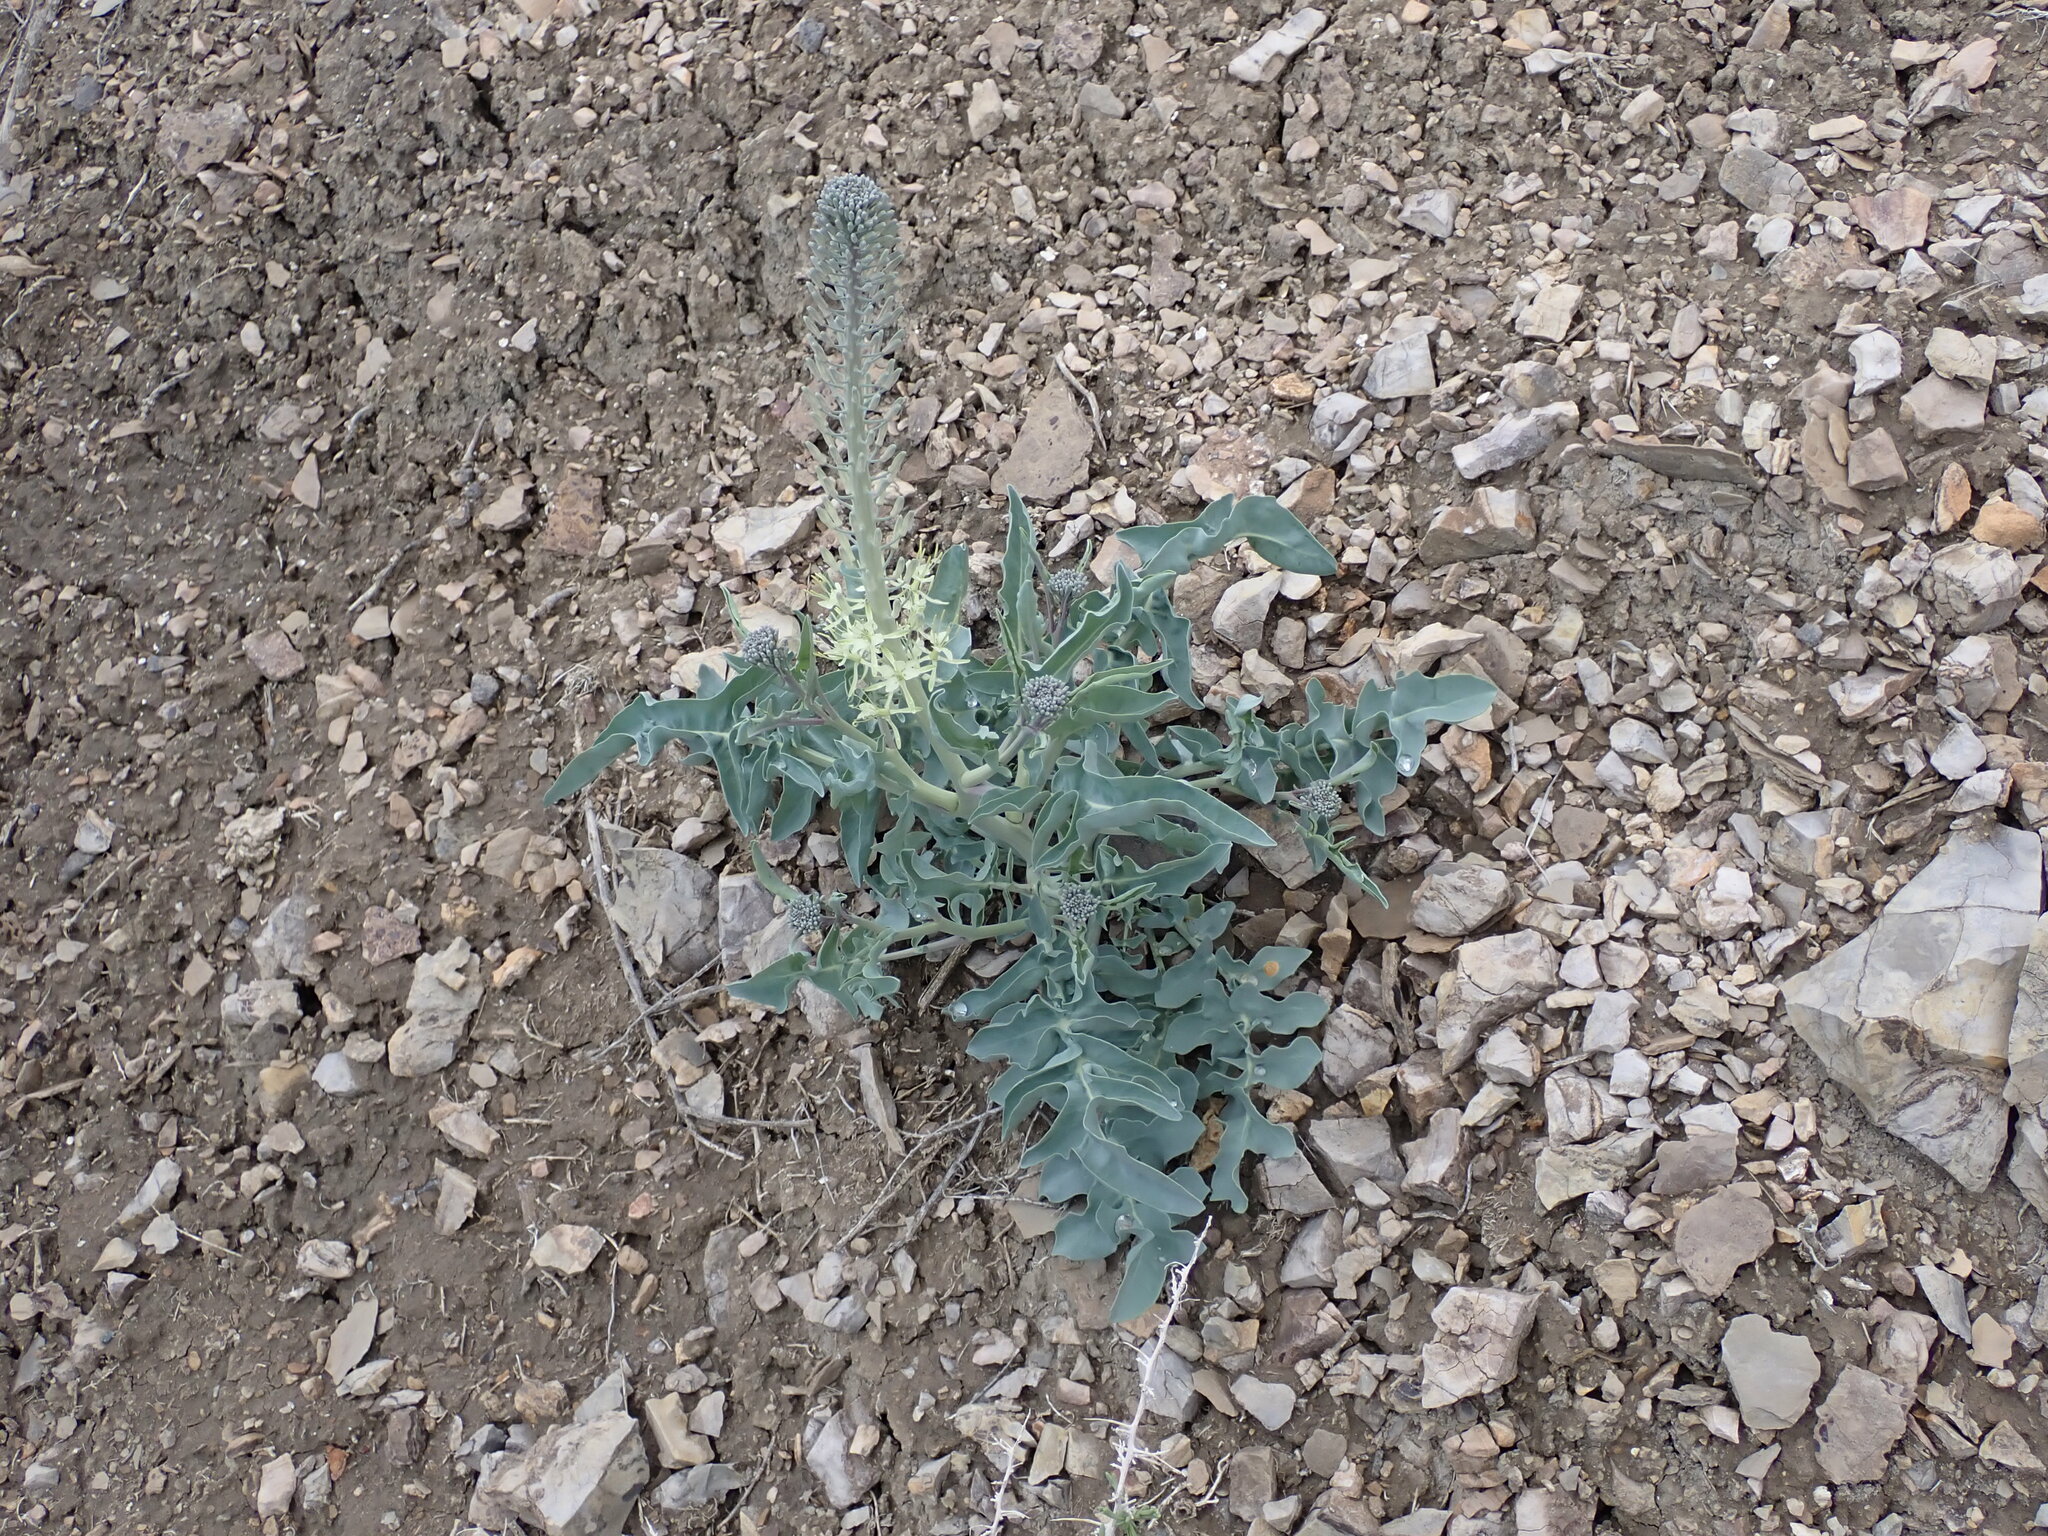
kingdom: Plantae
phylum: Tracheophyta
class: Magnoliopsida
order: Brassicales
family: Brassicaceae
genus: Stanleya
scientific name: Stanleya albescens
